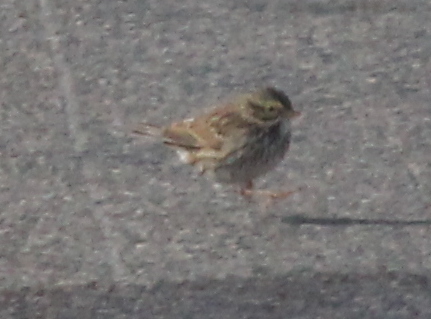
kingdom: Animalia
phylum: Chordata
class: Aves
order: Passeriformes
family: Passerellidae
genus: Passerculus
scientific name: Passerculus sandwichensis
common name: Savannah sparrow
